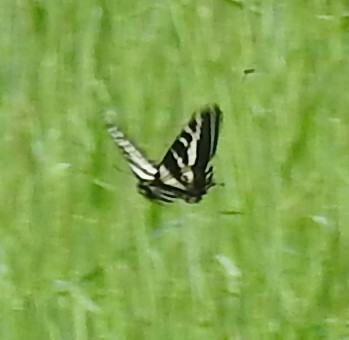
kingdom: Animalia
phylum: Arthropoda
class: Insecta
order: Lepidoptera
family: Papilionidae
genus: Papilio
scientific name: Papilio eurymedon
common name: Pale tiger swallowtail
